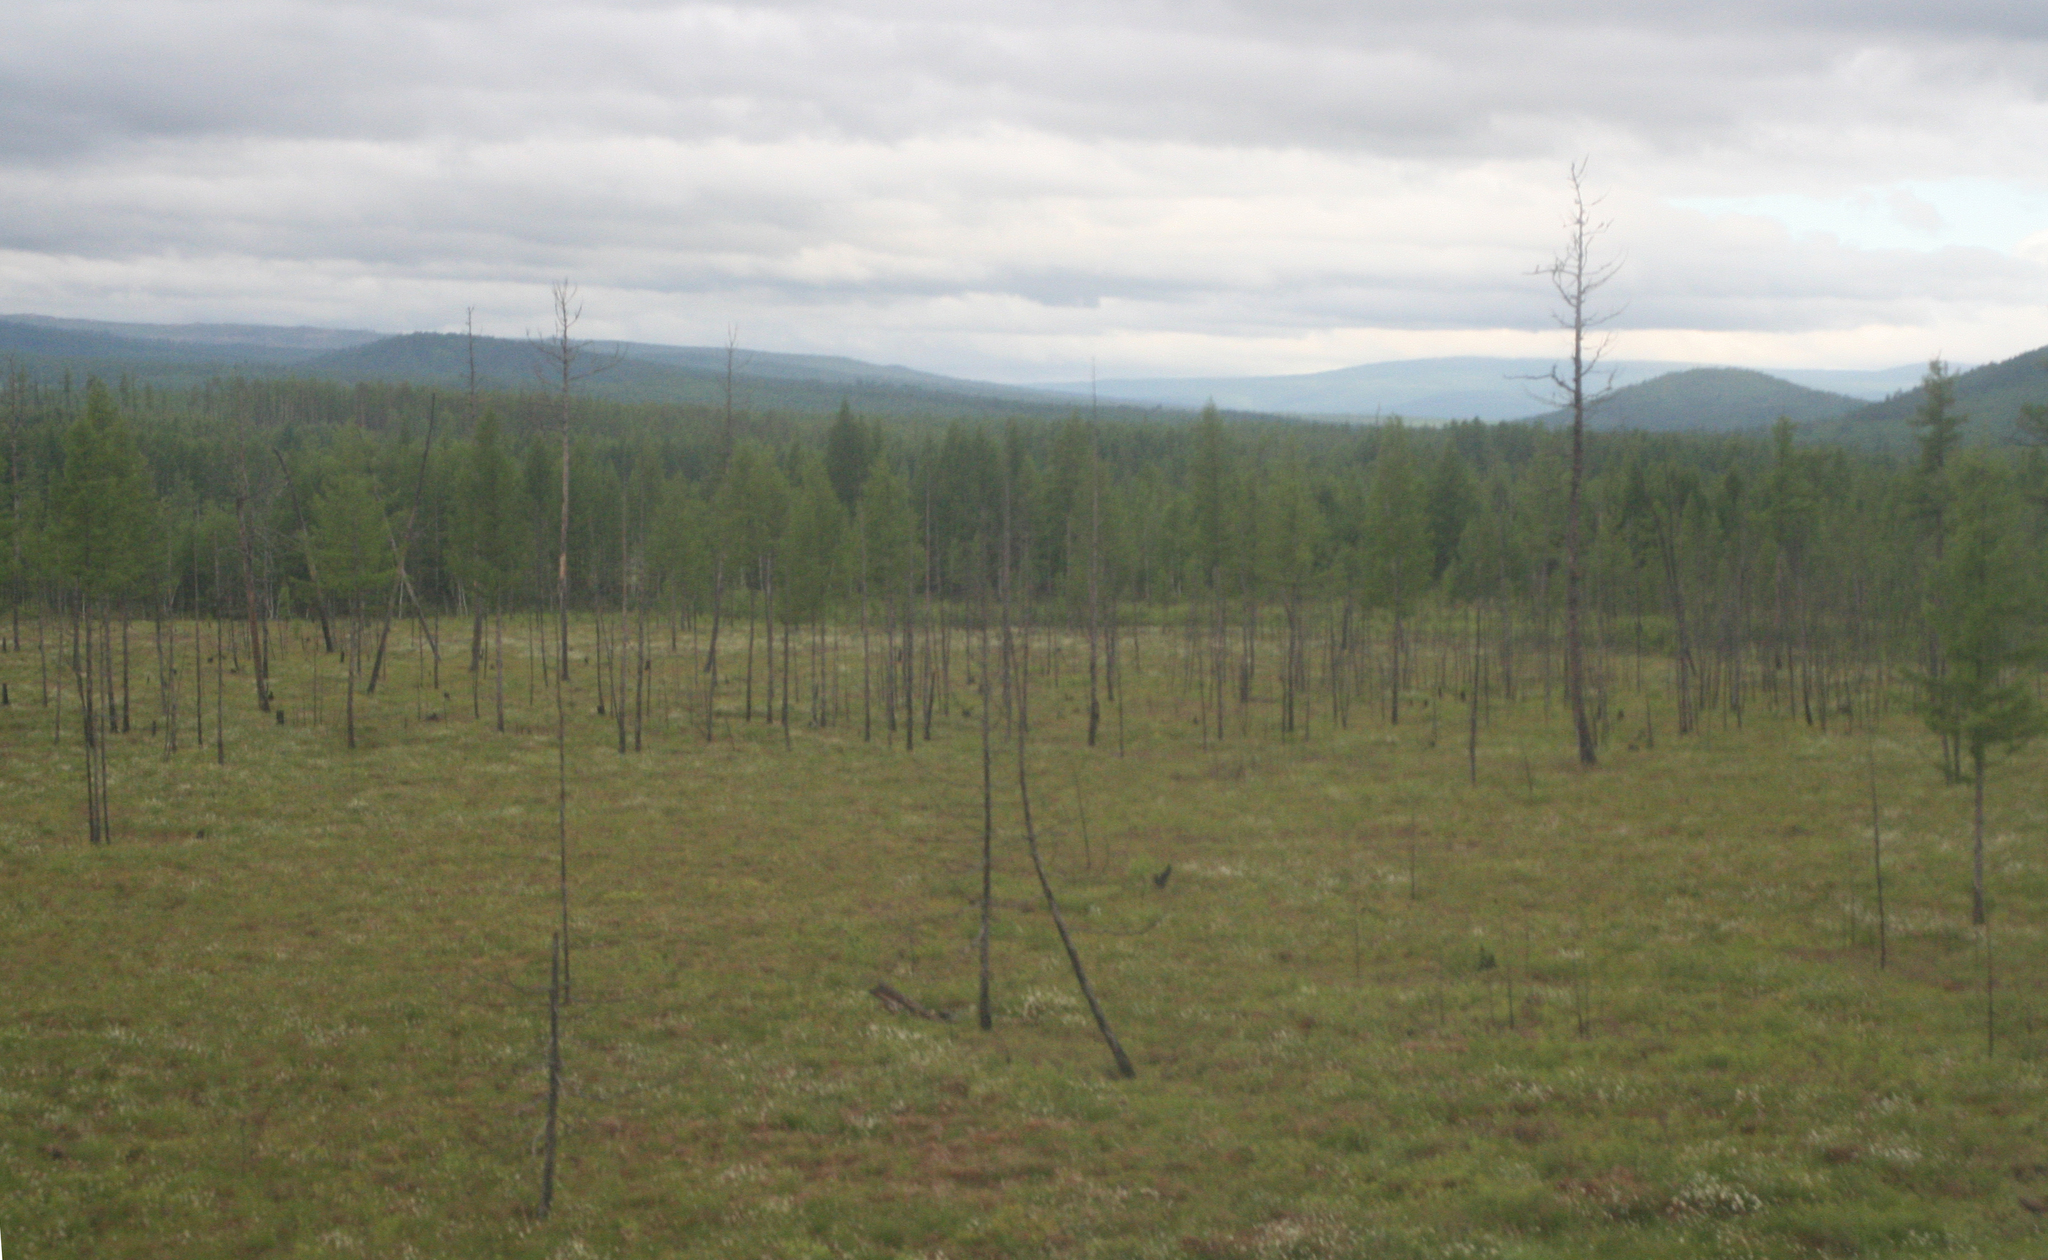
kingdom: Plantae
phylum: Tracheophyta
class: Pinopsida
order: Pinales
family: Pinaceae
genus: Larix
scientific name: Larix gmelinii
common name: Dahurian larch
